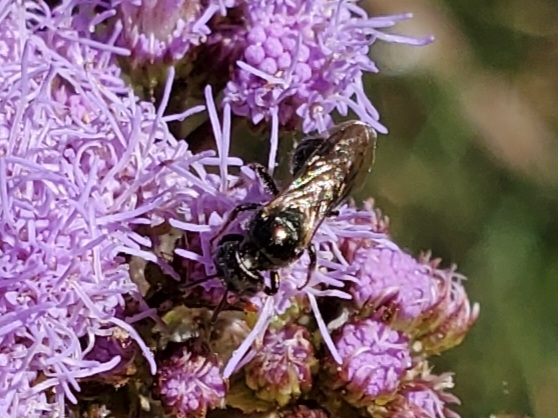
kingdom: Animalia
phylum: Arthropoda
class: Insecta
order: Hymenoptera
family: Apidae
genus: Zadontomerus
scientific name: Zadontomerus
